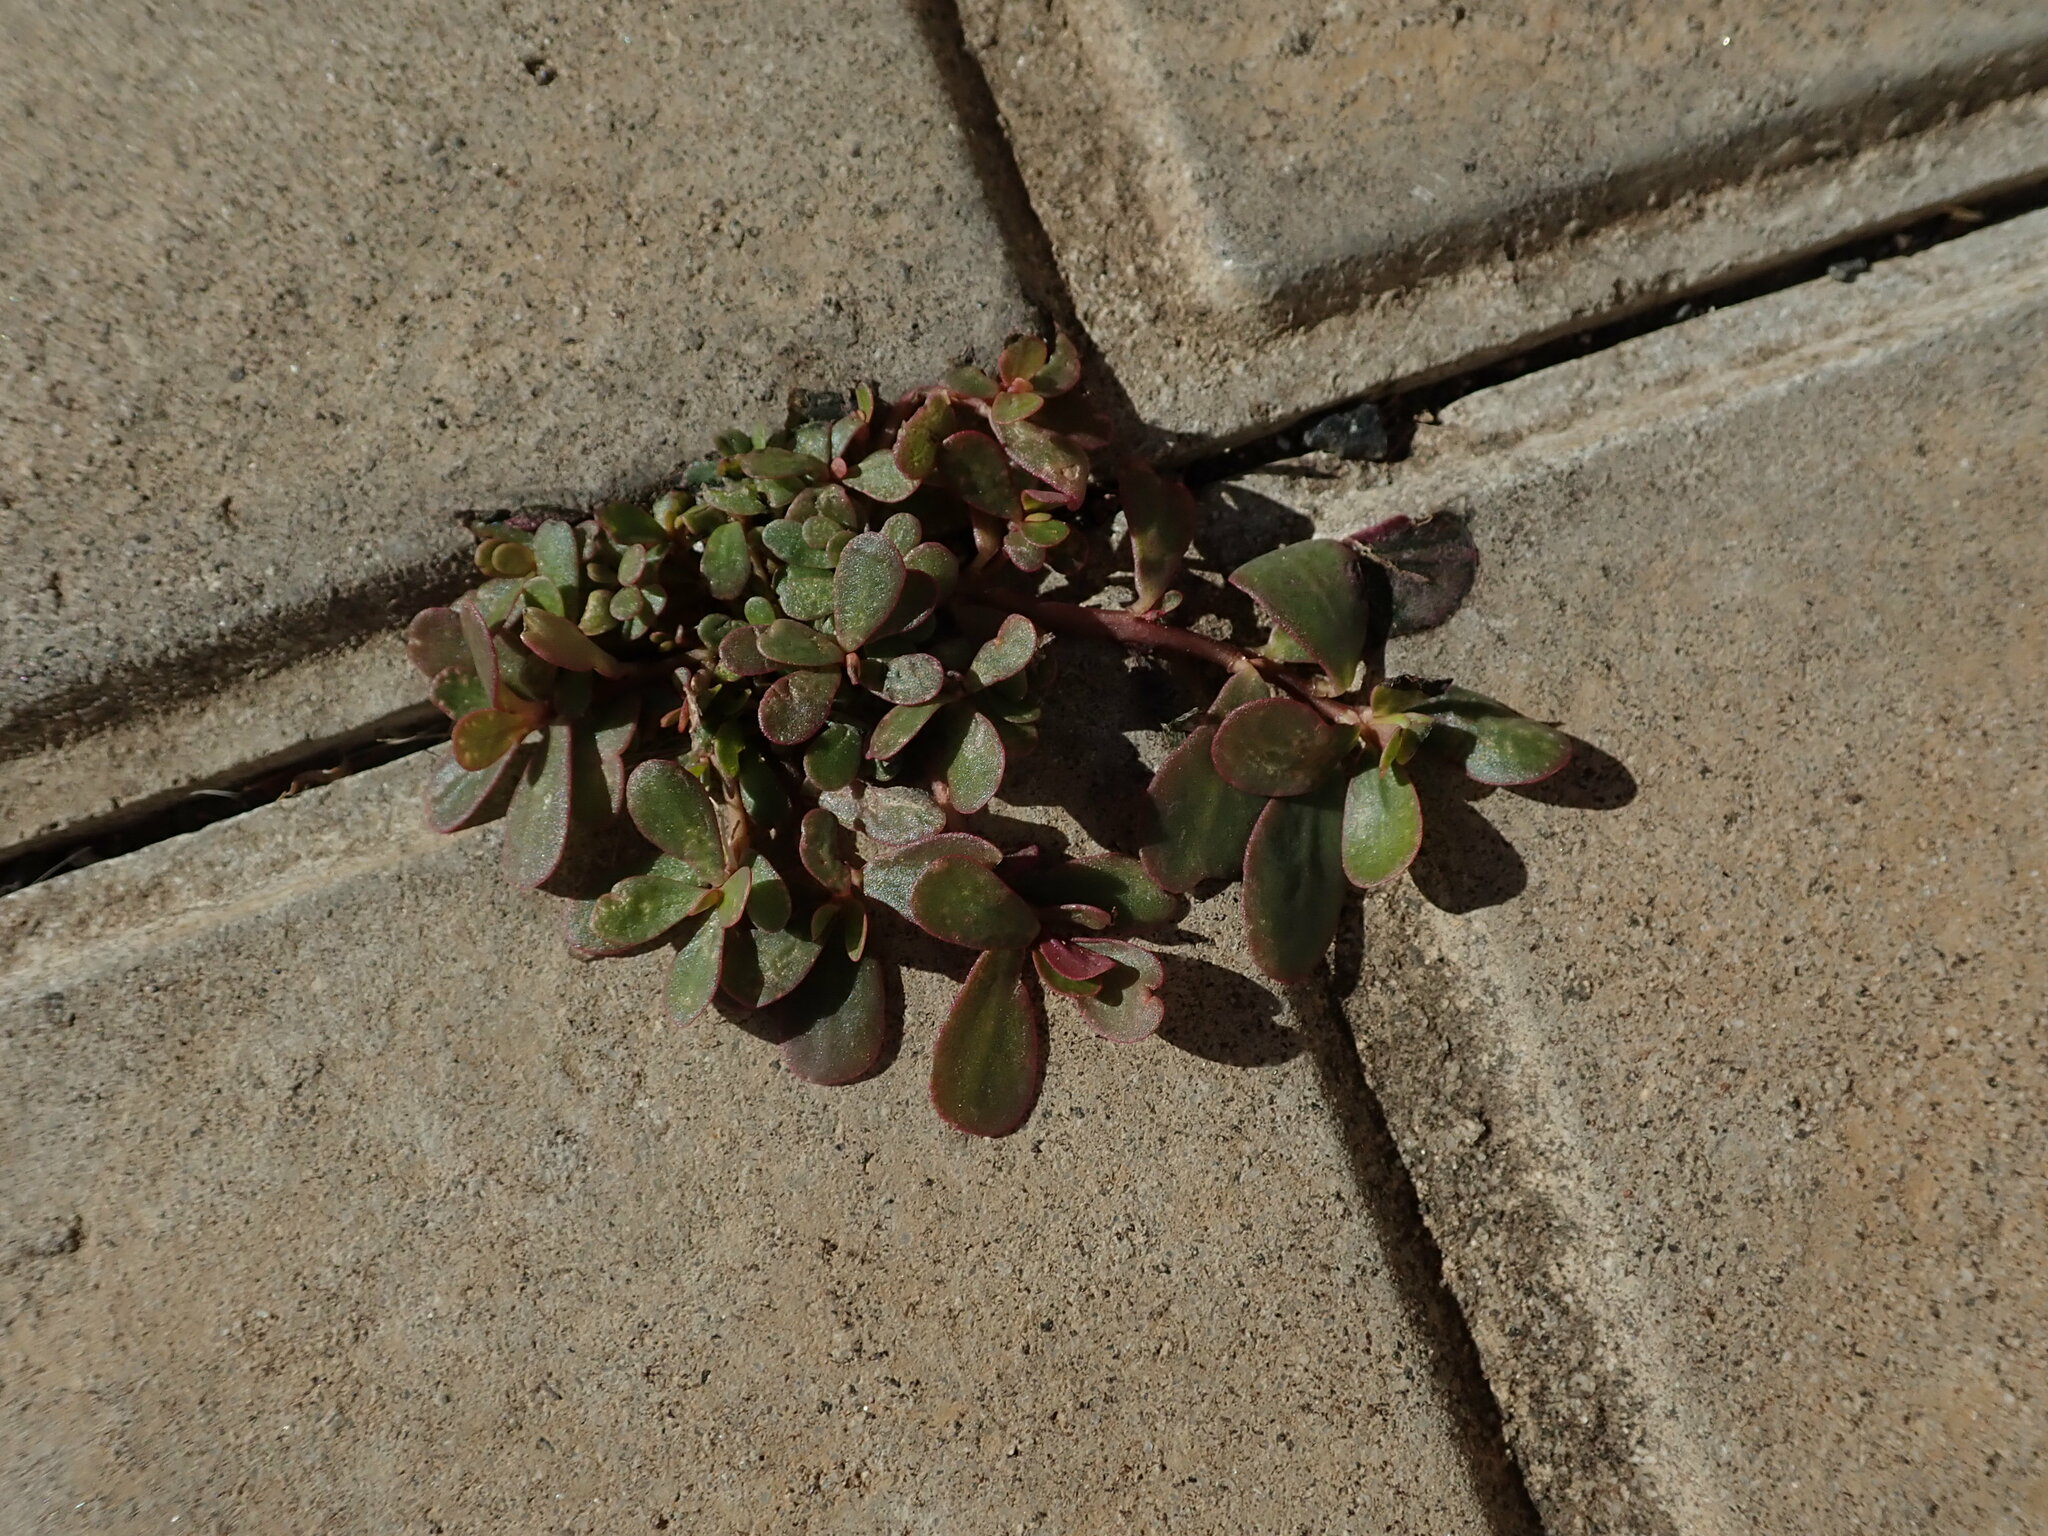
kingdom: Plantae
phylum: Tracheophyta
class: Magnoliopsida
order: Caryophyllales
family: Portulacaceae
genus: Portulaca
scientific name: Portulaca oleracea
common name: Common purslane
